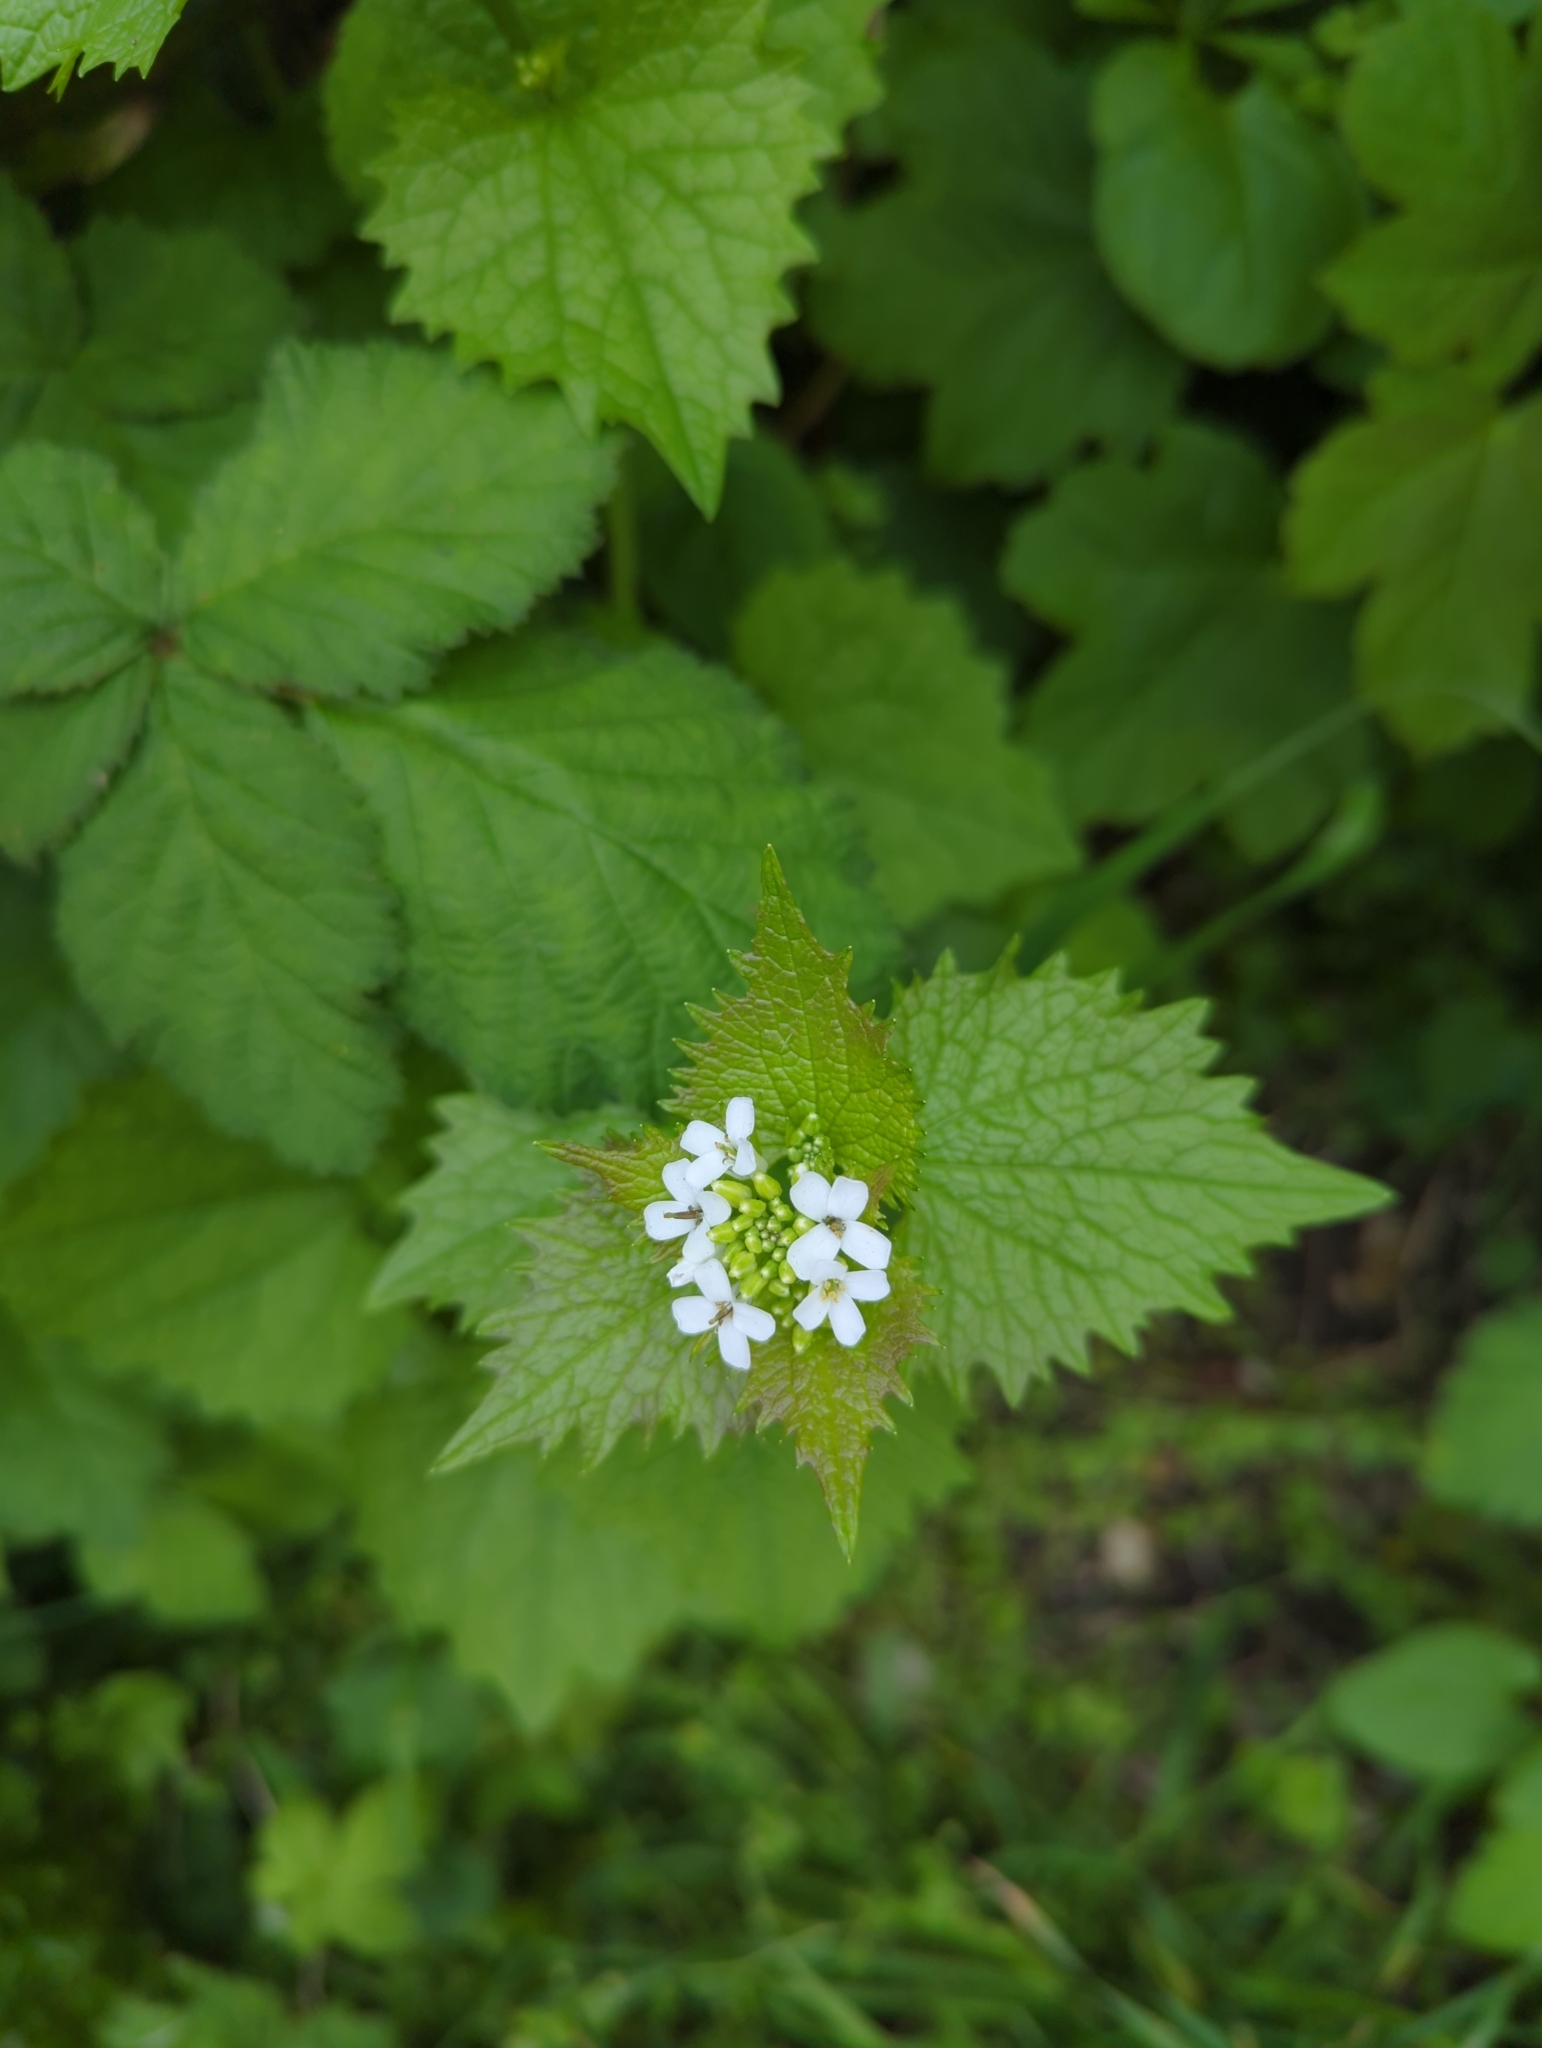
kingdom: Plantae
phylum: Tracheophyta
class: Magnoliopsida
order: Brassicales
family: Brassicaceae
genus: Alliaria
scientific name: Alliaria petiolata
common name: Garlic mustard
